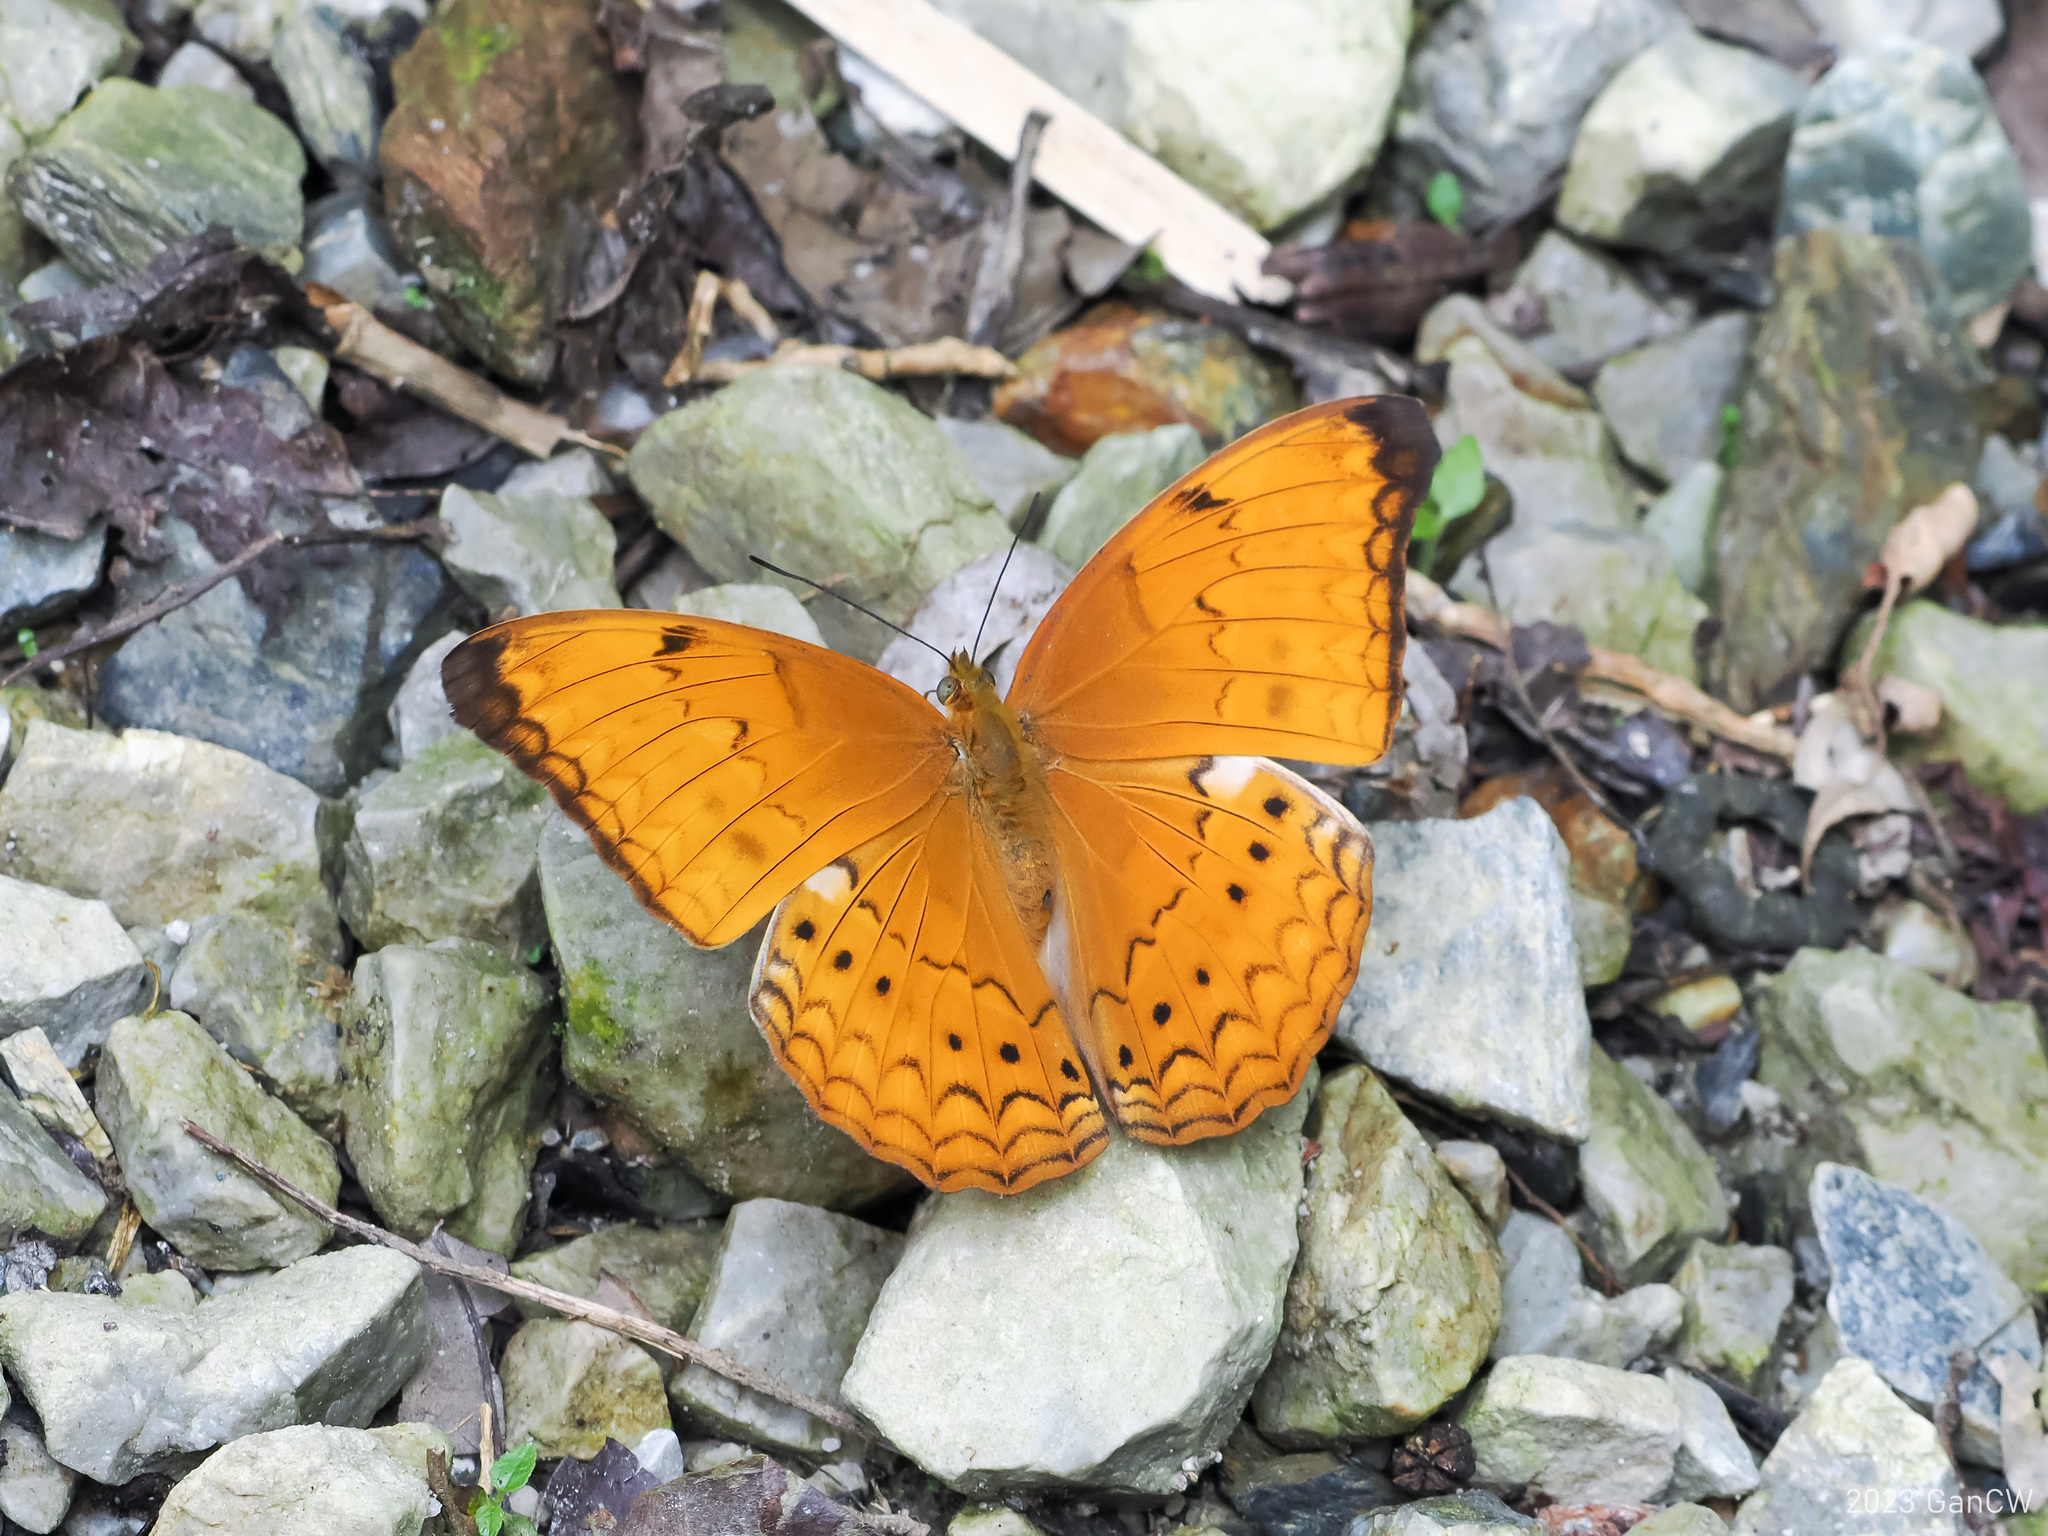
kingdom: Animalia
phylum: Arthropoda
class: Insecta
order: Lepidoptera
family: Nymphalidae
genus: Cirrochroa
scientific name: Cirrochroa aoris
